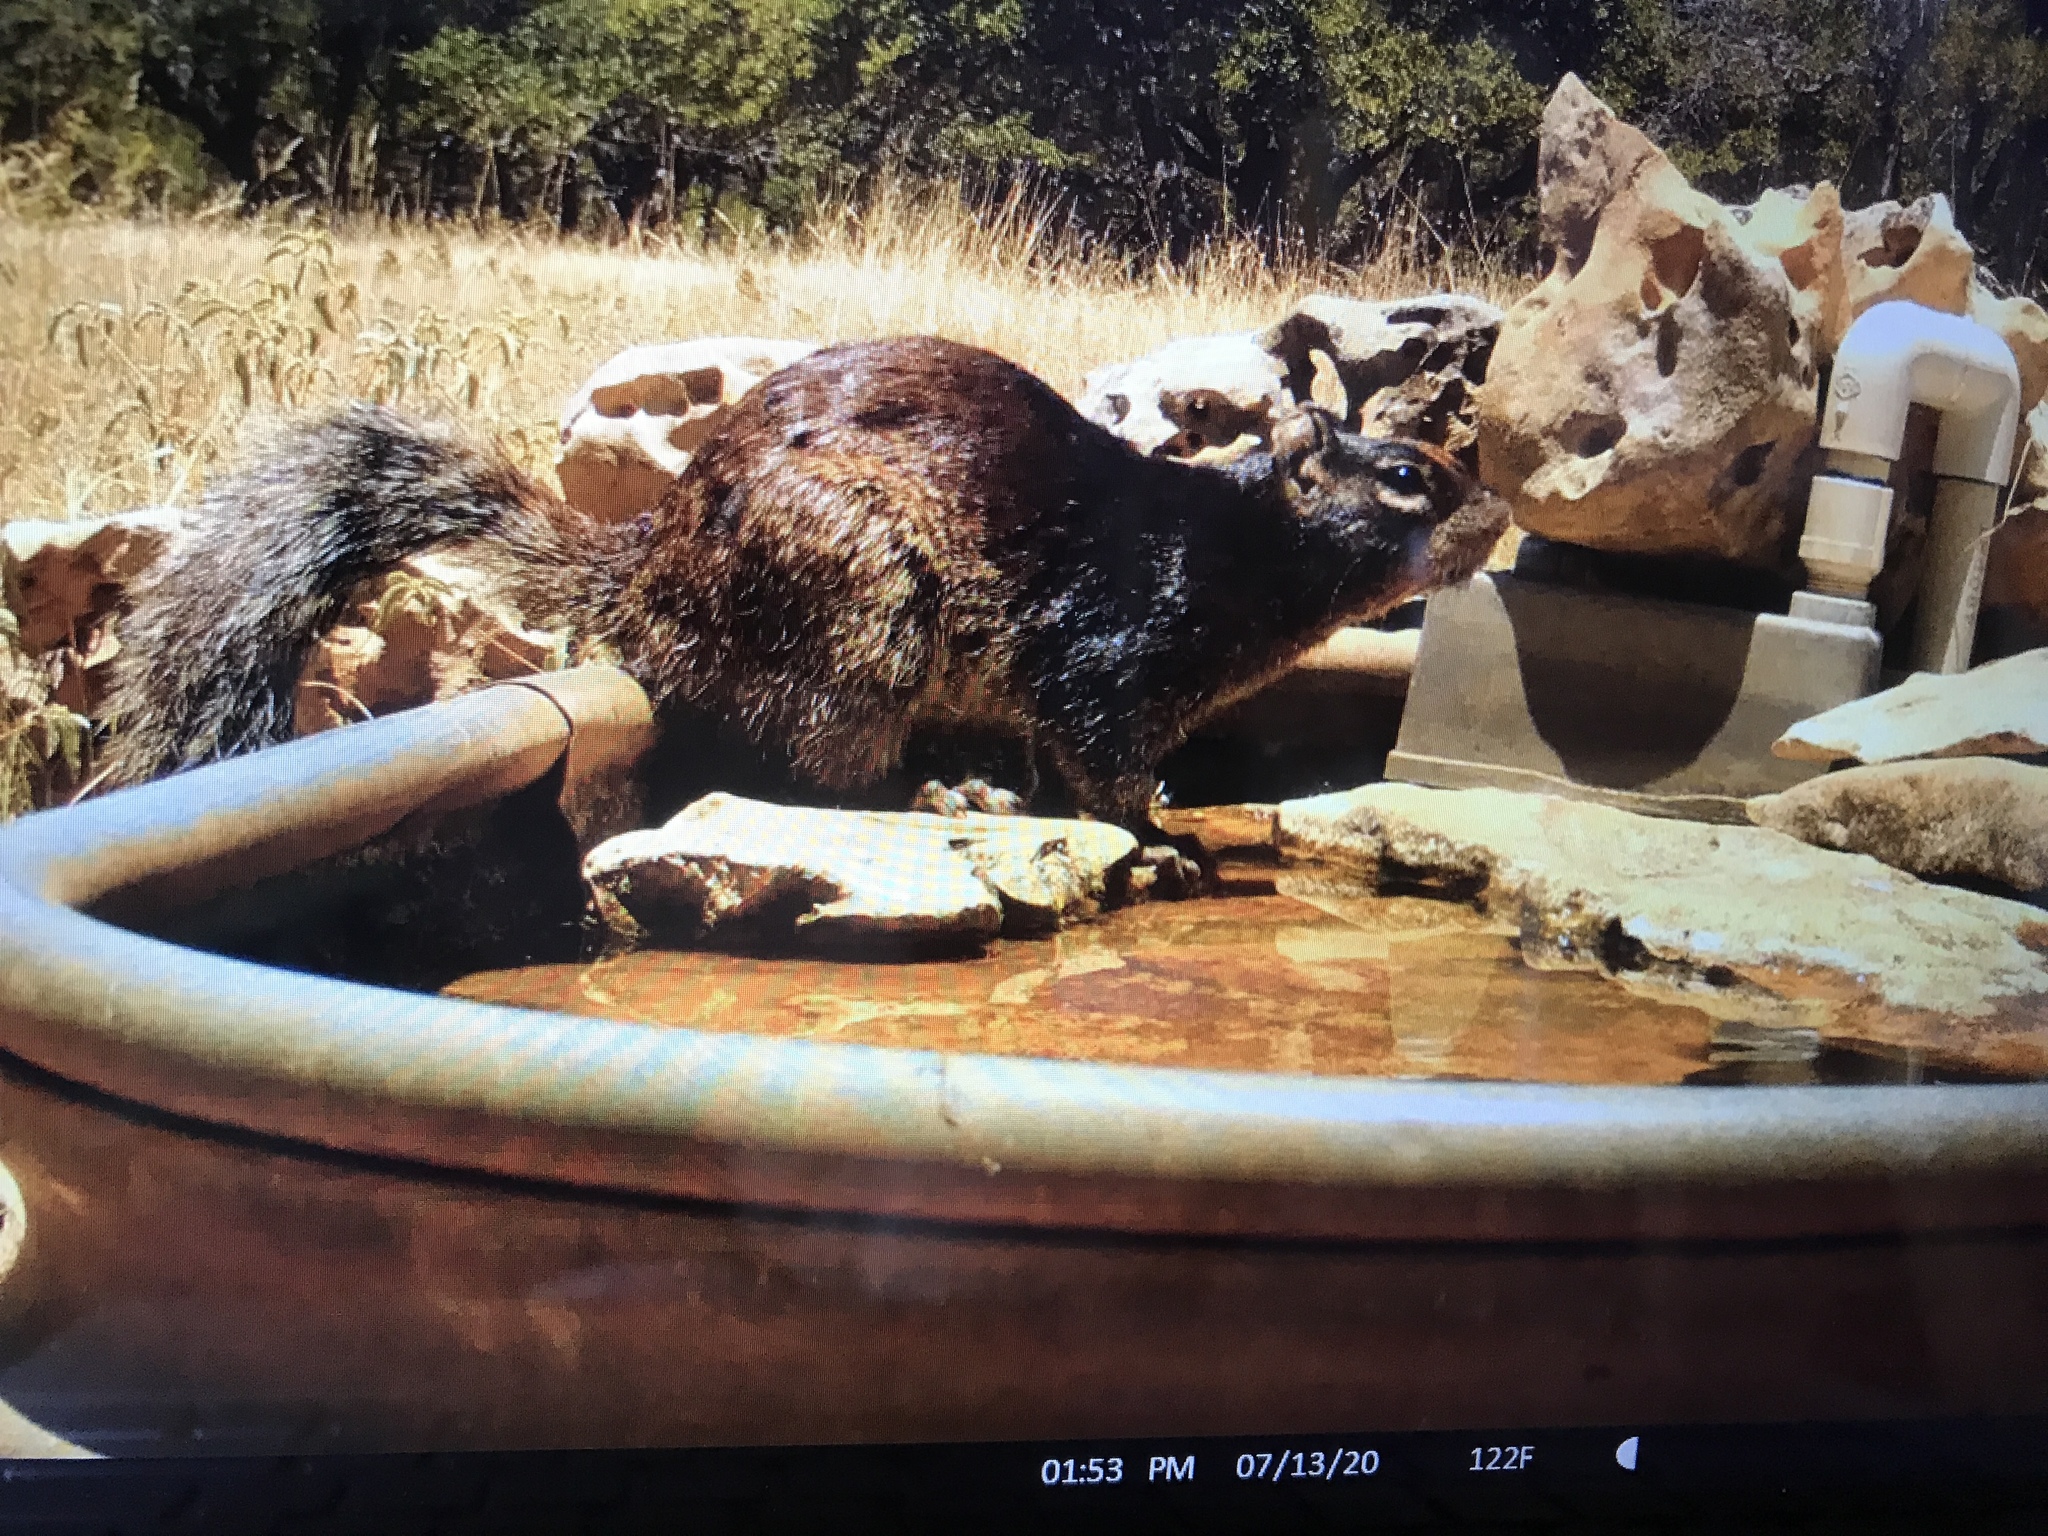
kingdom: Animalia
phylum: Chordata
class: Mammalia
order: Rodentia
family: Sciuridae
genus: Otospermophilus
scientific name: Otospermophilus variegatus
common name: Rock squirrel
